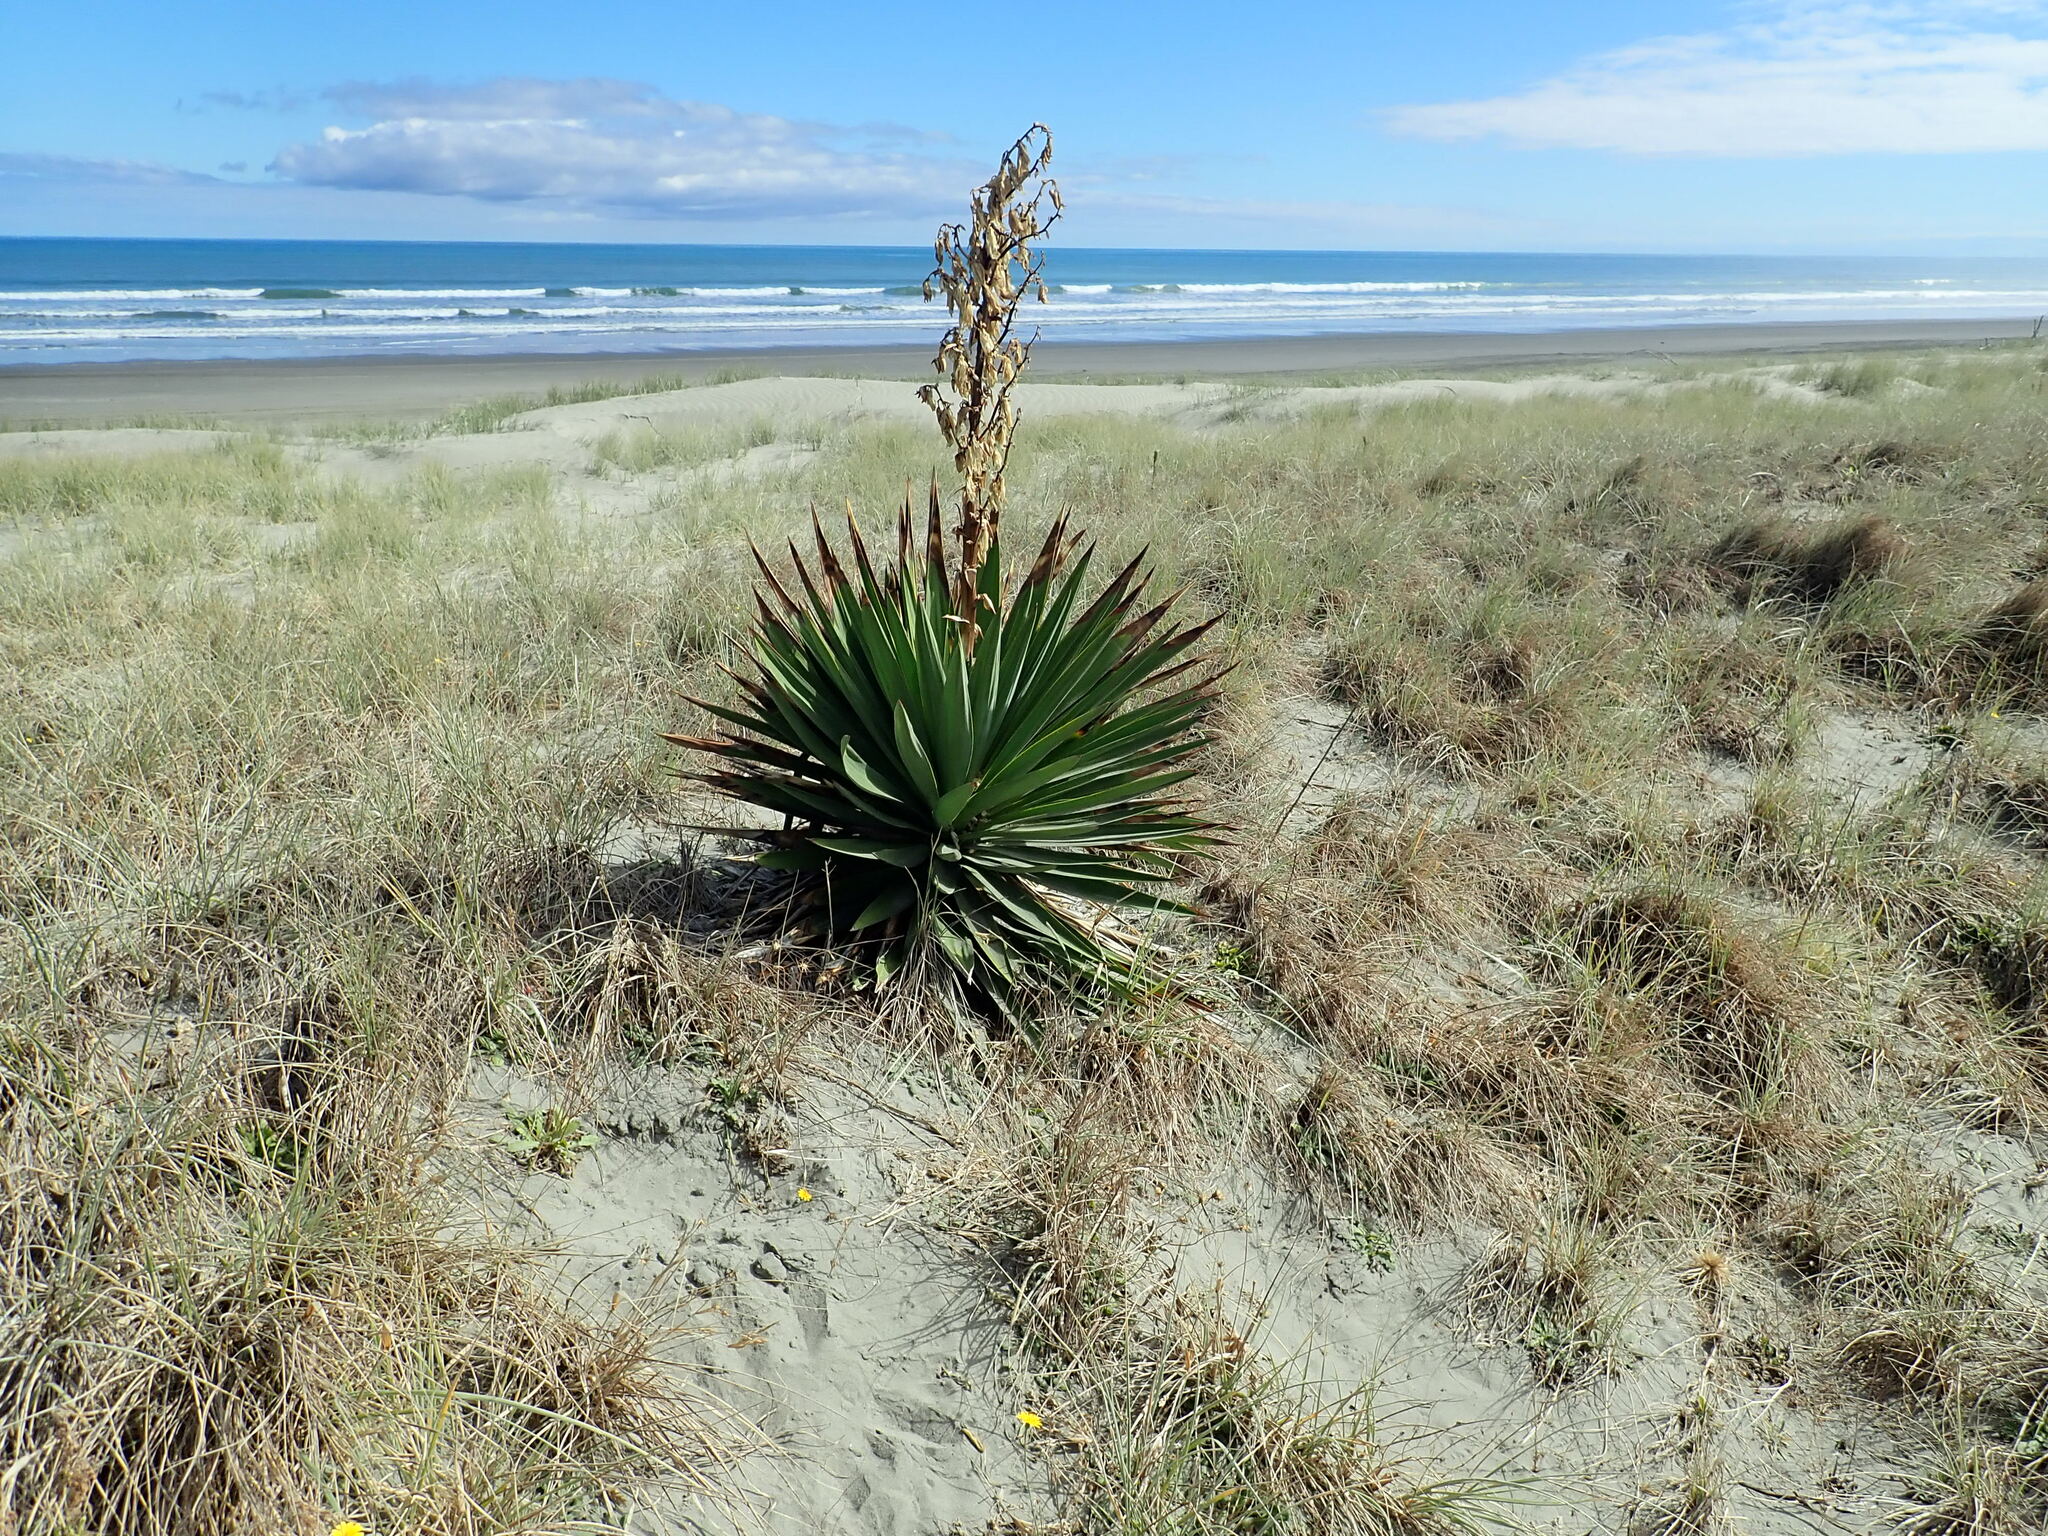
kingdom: Plantae
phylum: Tracheophyta
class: Liliopsida
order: Asparagales
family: Asparagaceae
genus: Yucca
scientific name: Yucca gloriosa
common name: Spanish-dagger
